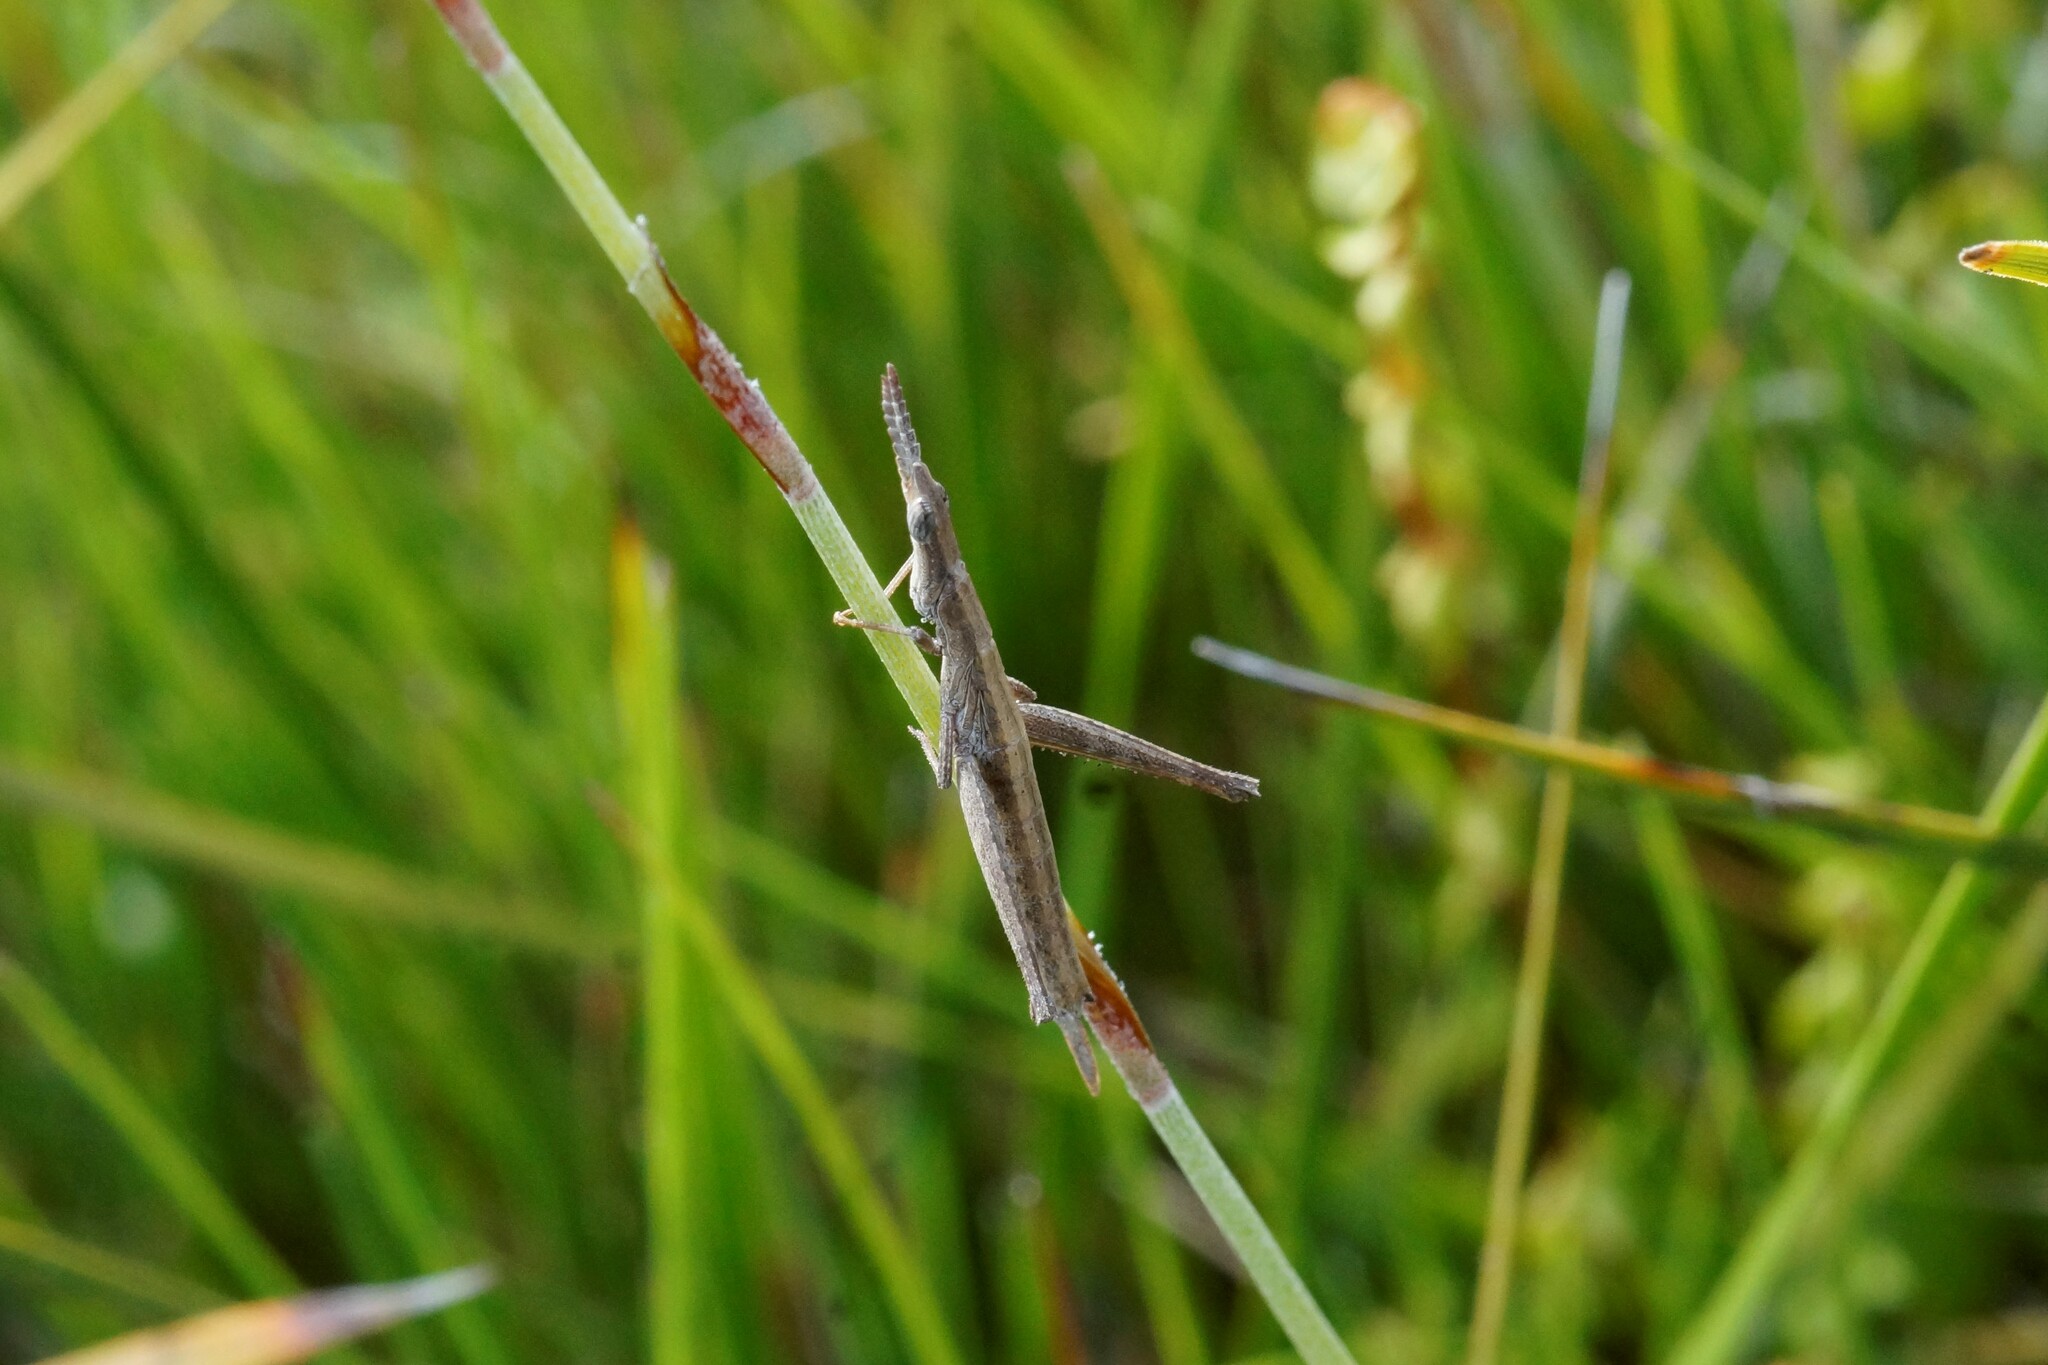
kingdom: Animalia
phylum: Arthropoda
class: Insecta
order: Orthoptera
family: Morabidae
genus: Vandiemenella
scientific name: Vandiemenella viatica
